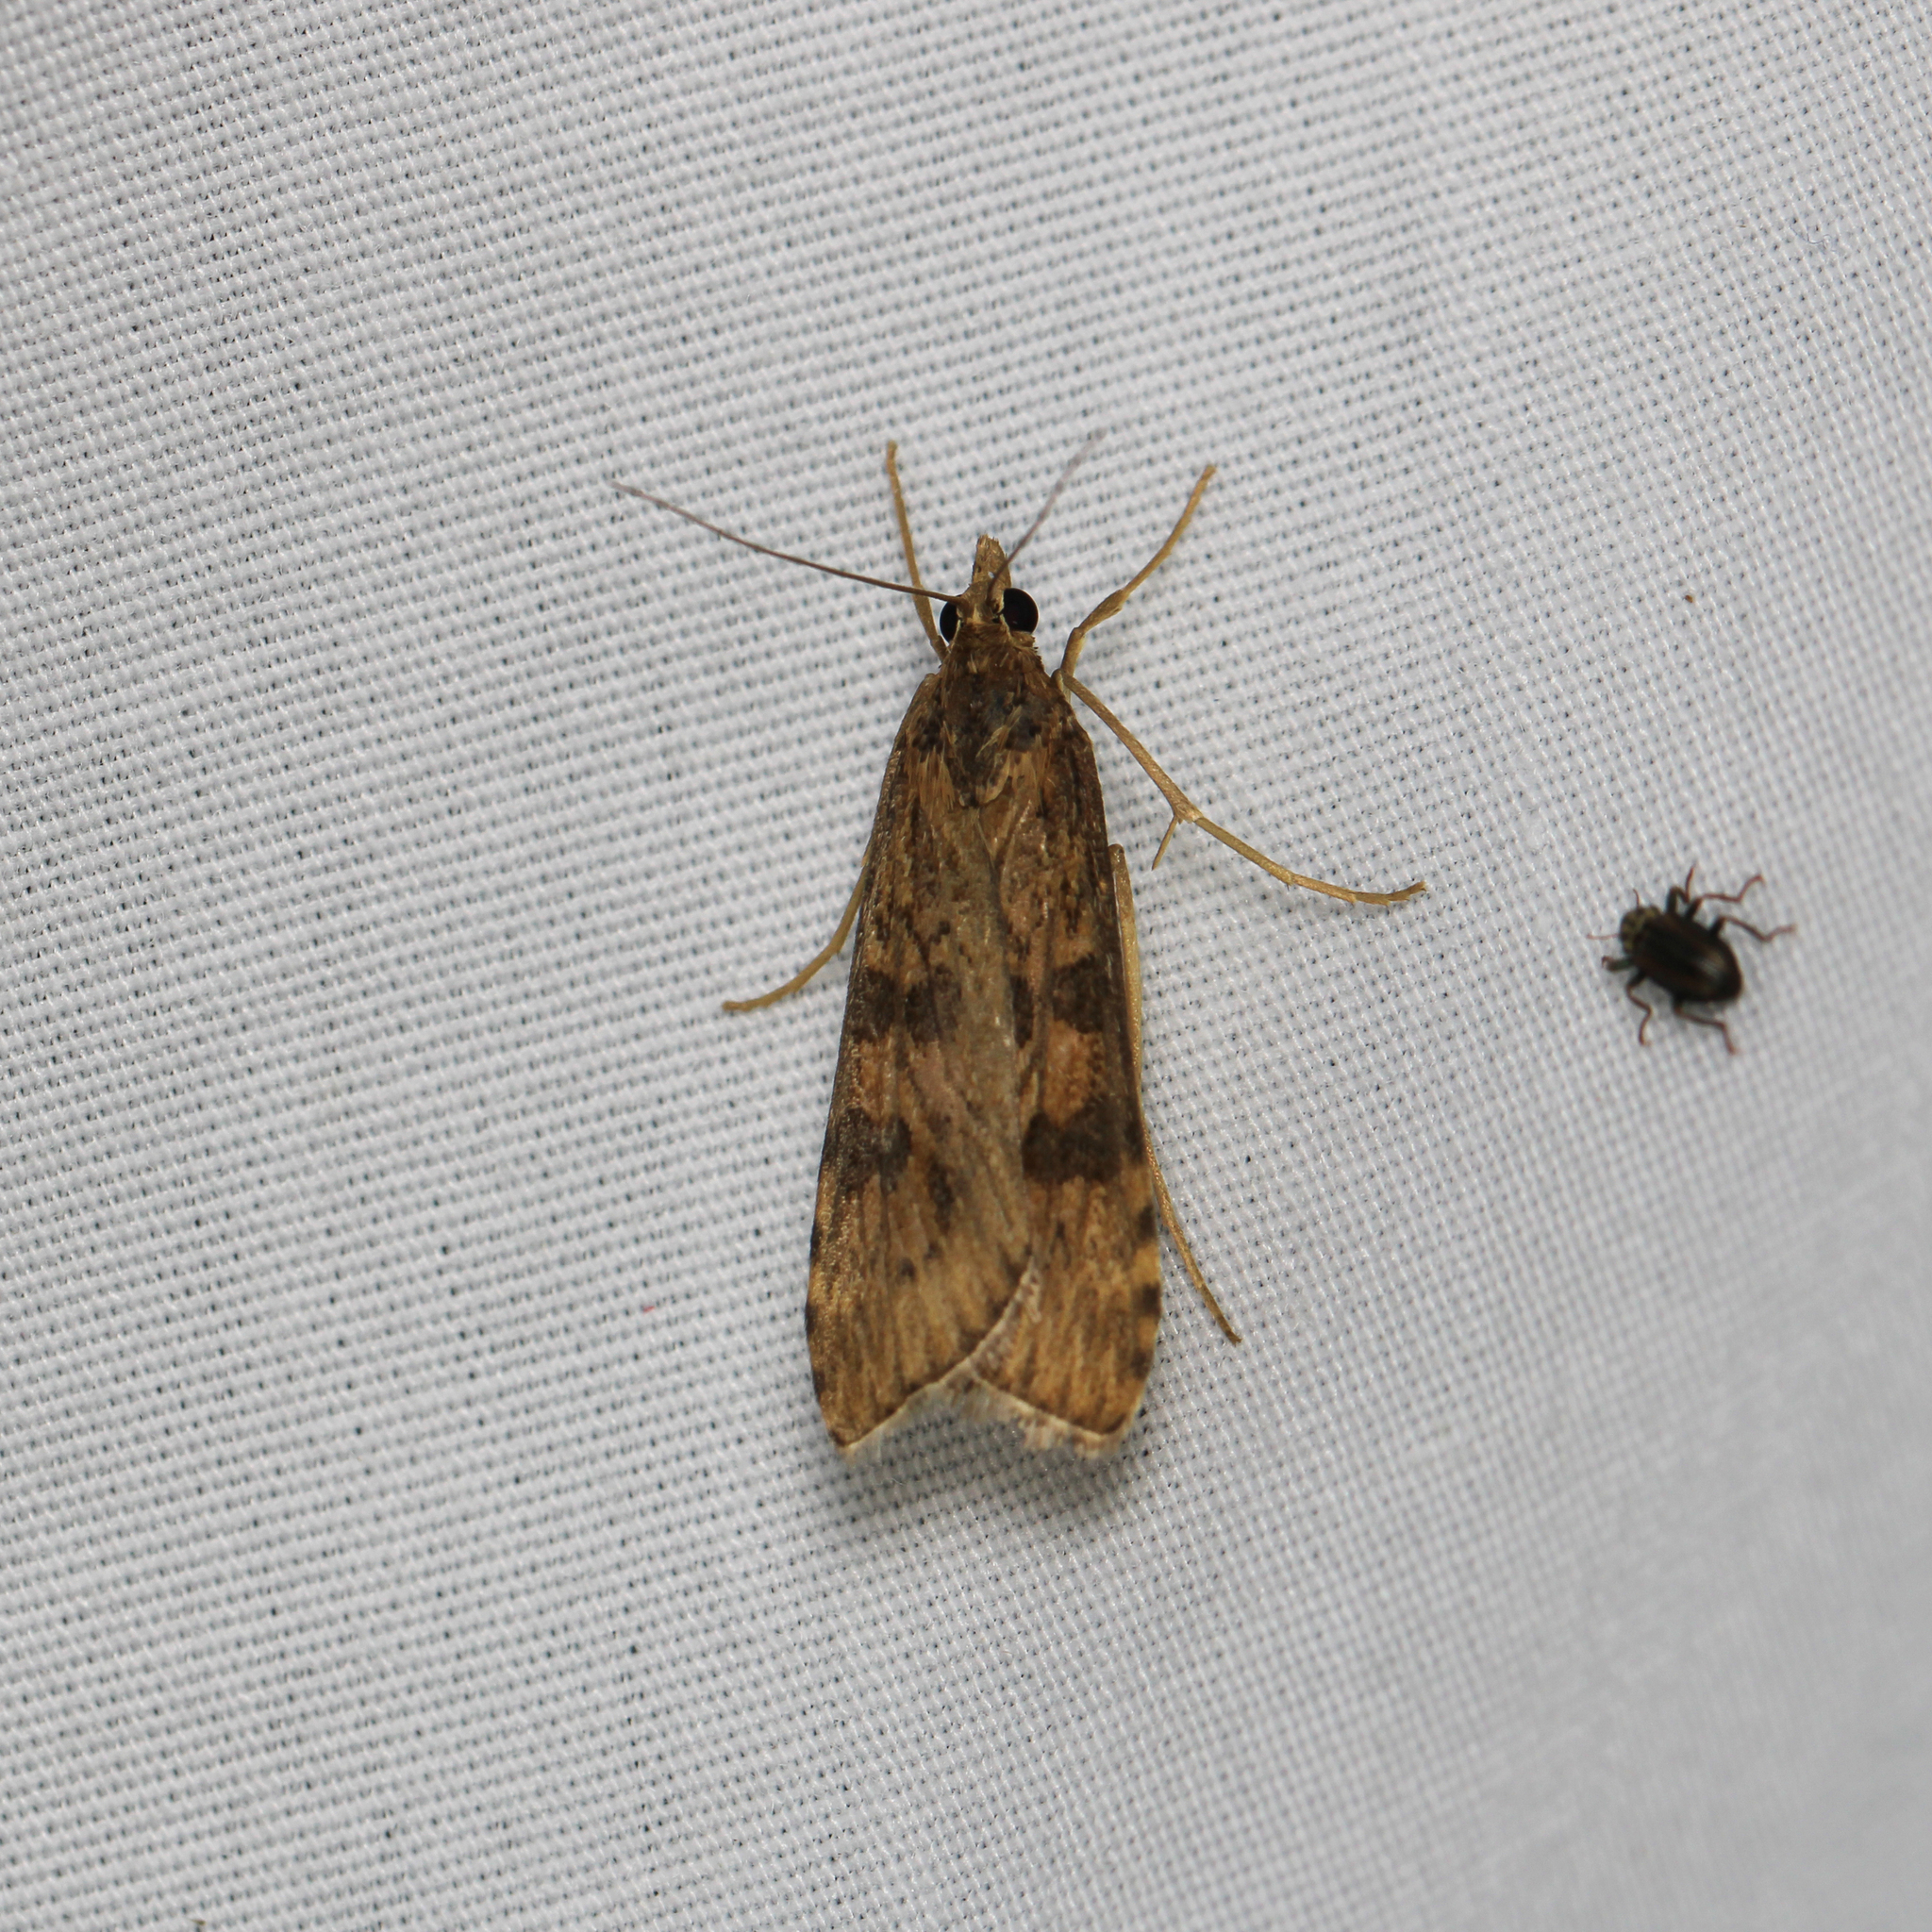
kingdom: Animalia
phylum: Arthropoda
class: Insecta
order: Lepidoptera
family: Crambidae
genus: Nomophila
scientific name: Nomophila nearctica
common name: American rush veneer
